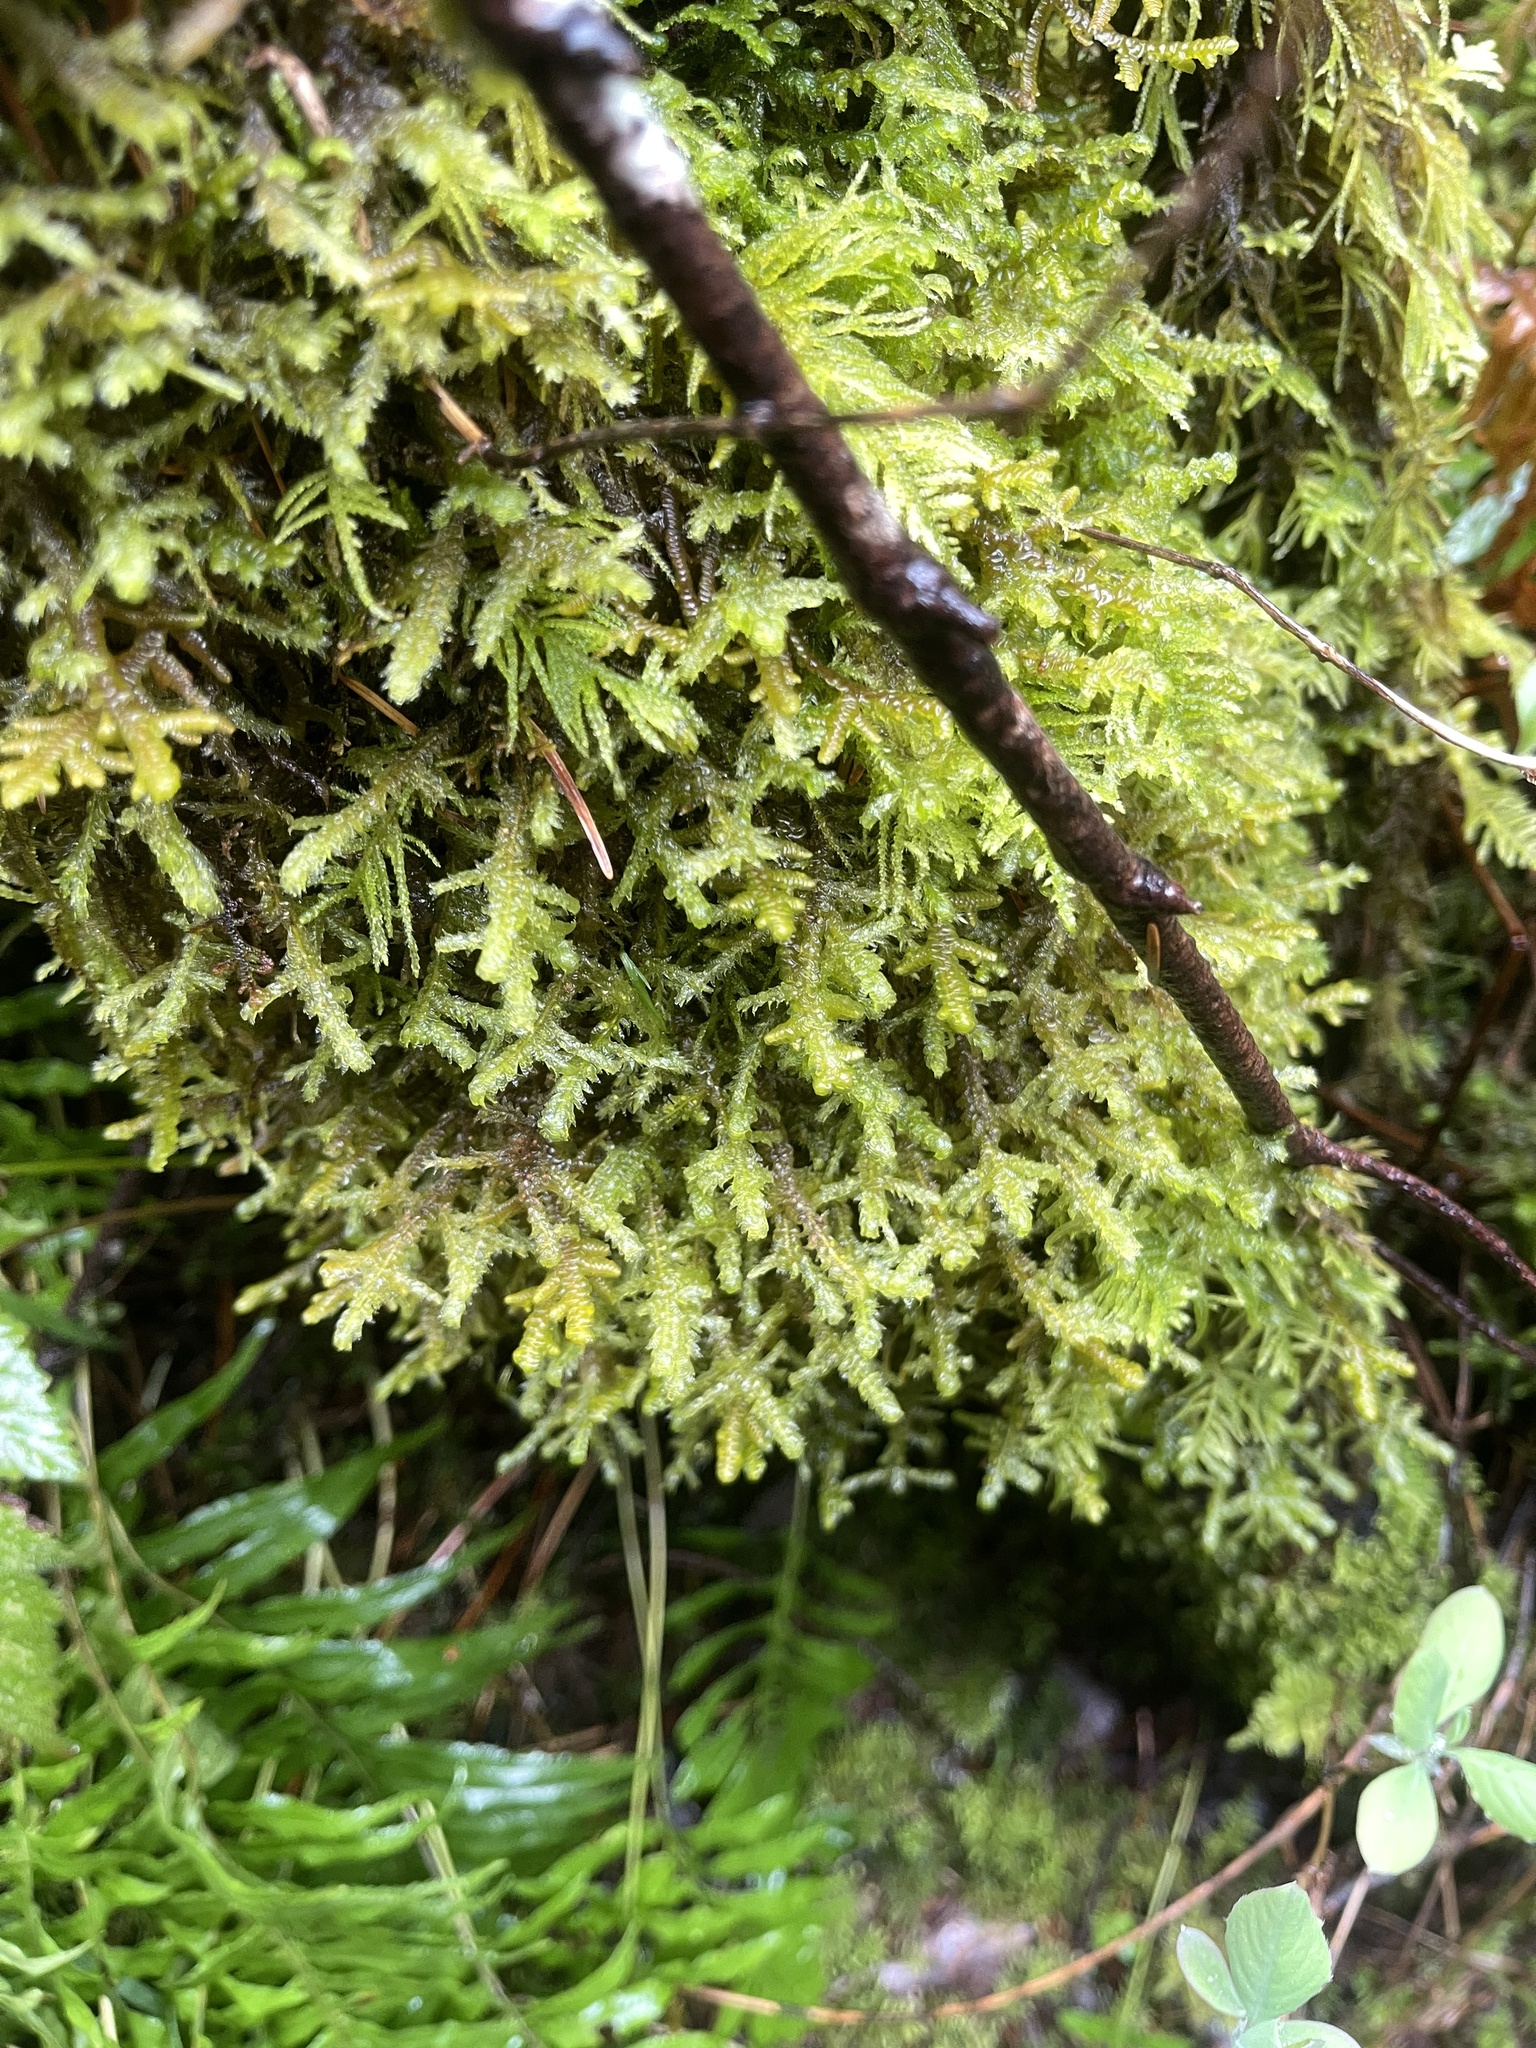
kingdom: Plantae
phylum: Bryophyta
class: Bryopsida
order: Hypnales
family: Neckeraceae
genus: Neckera
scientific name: Neckera douglasii
